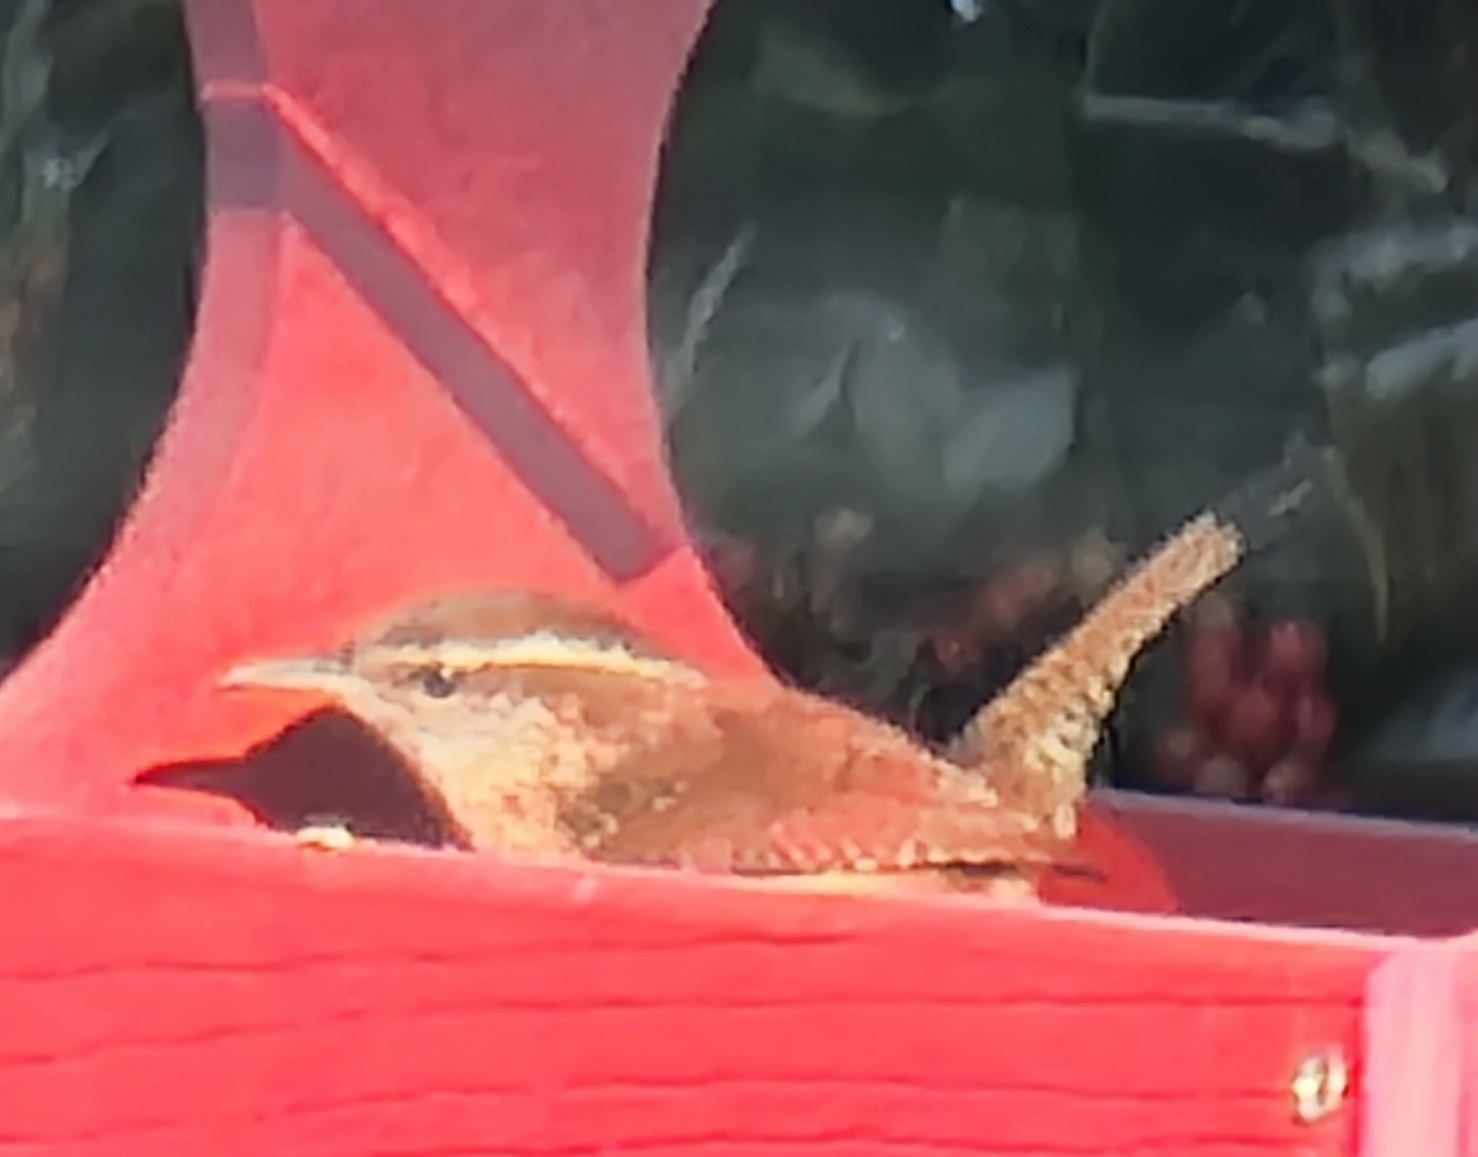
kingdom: Animalia
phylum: Chordata
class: Aves
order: Passeriformes
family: Troglodytidae
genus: Thryothorus
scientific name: Thryothorus ludovicianus
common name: Carolina wren
